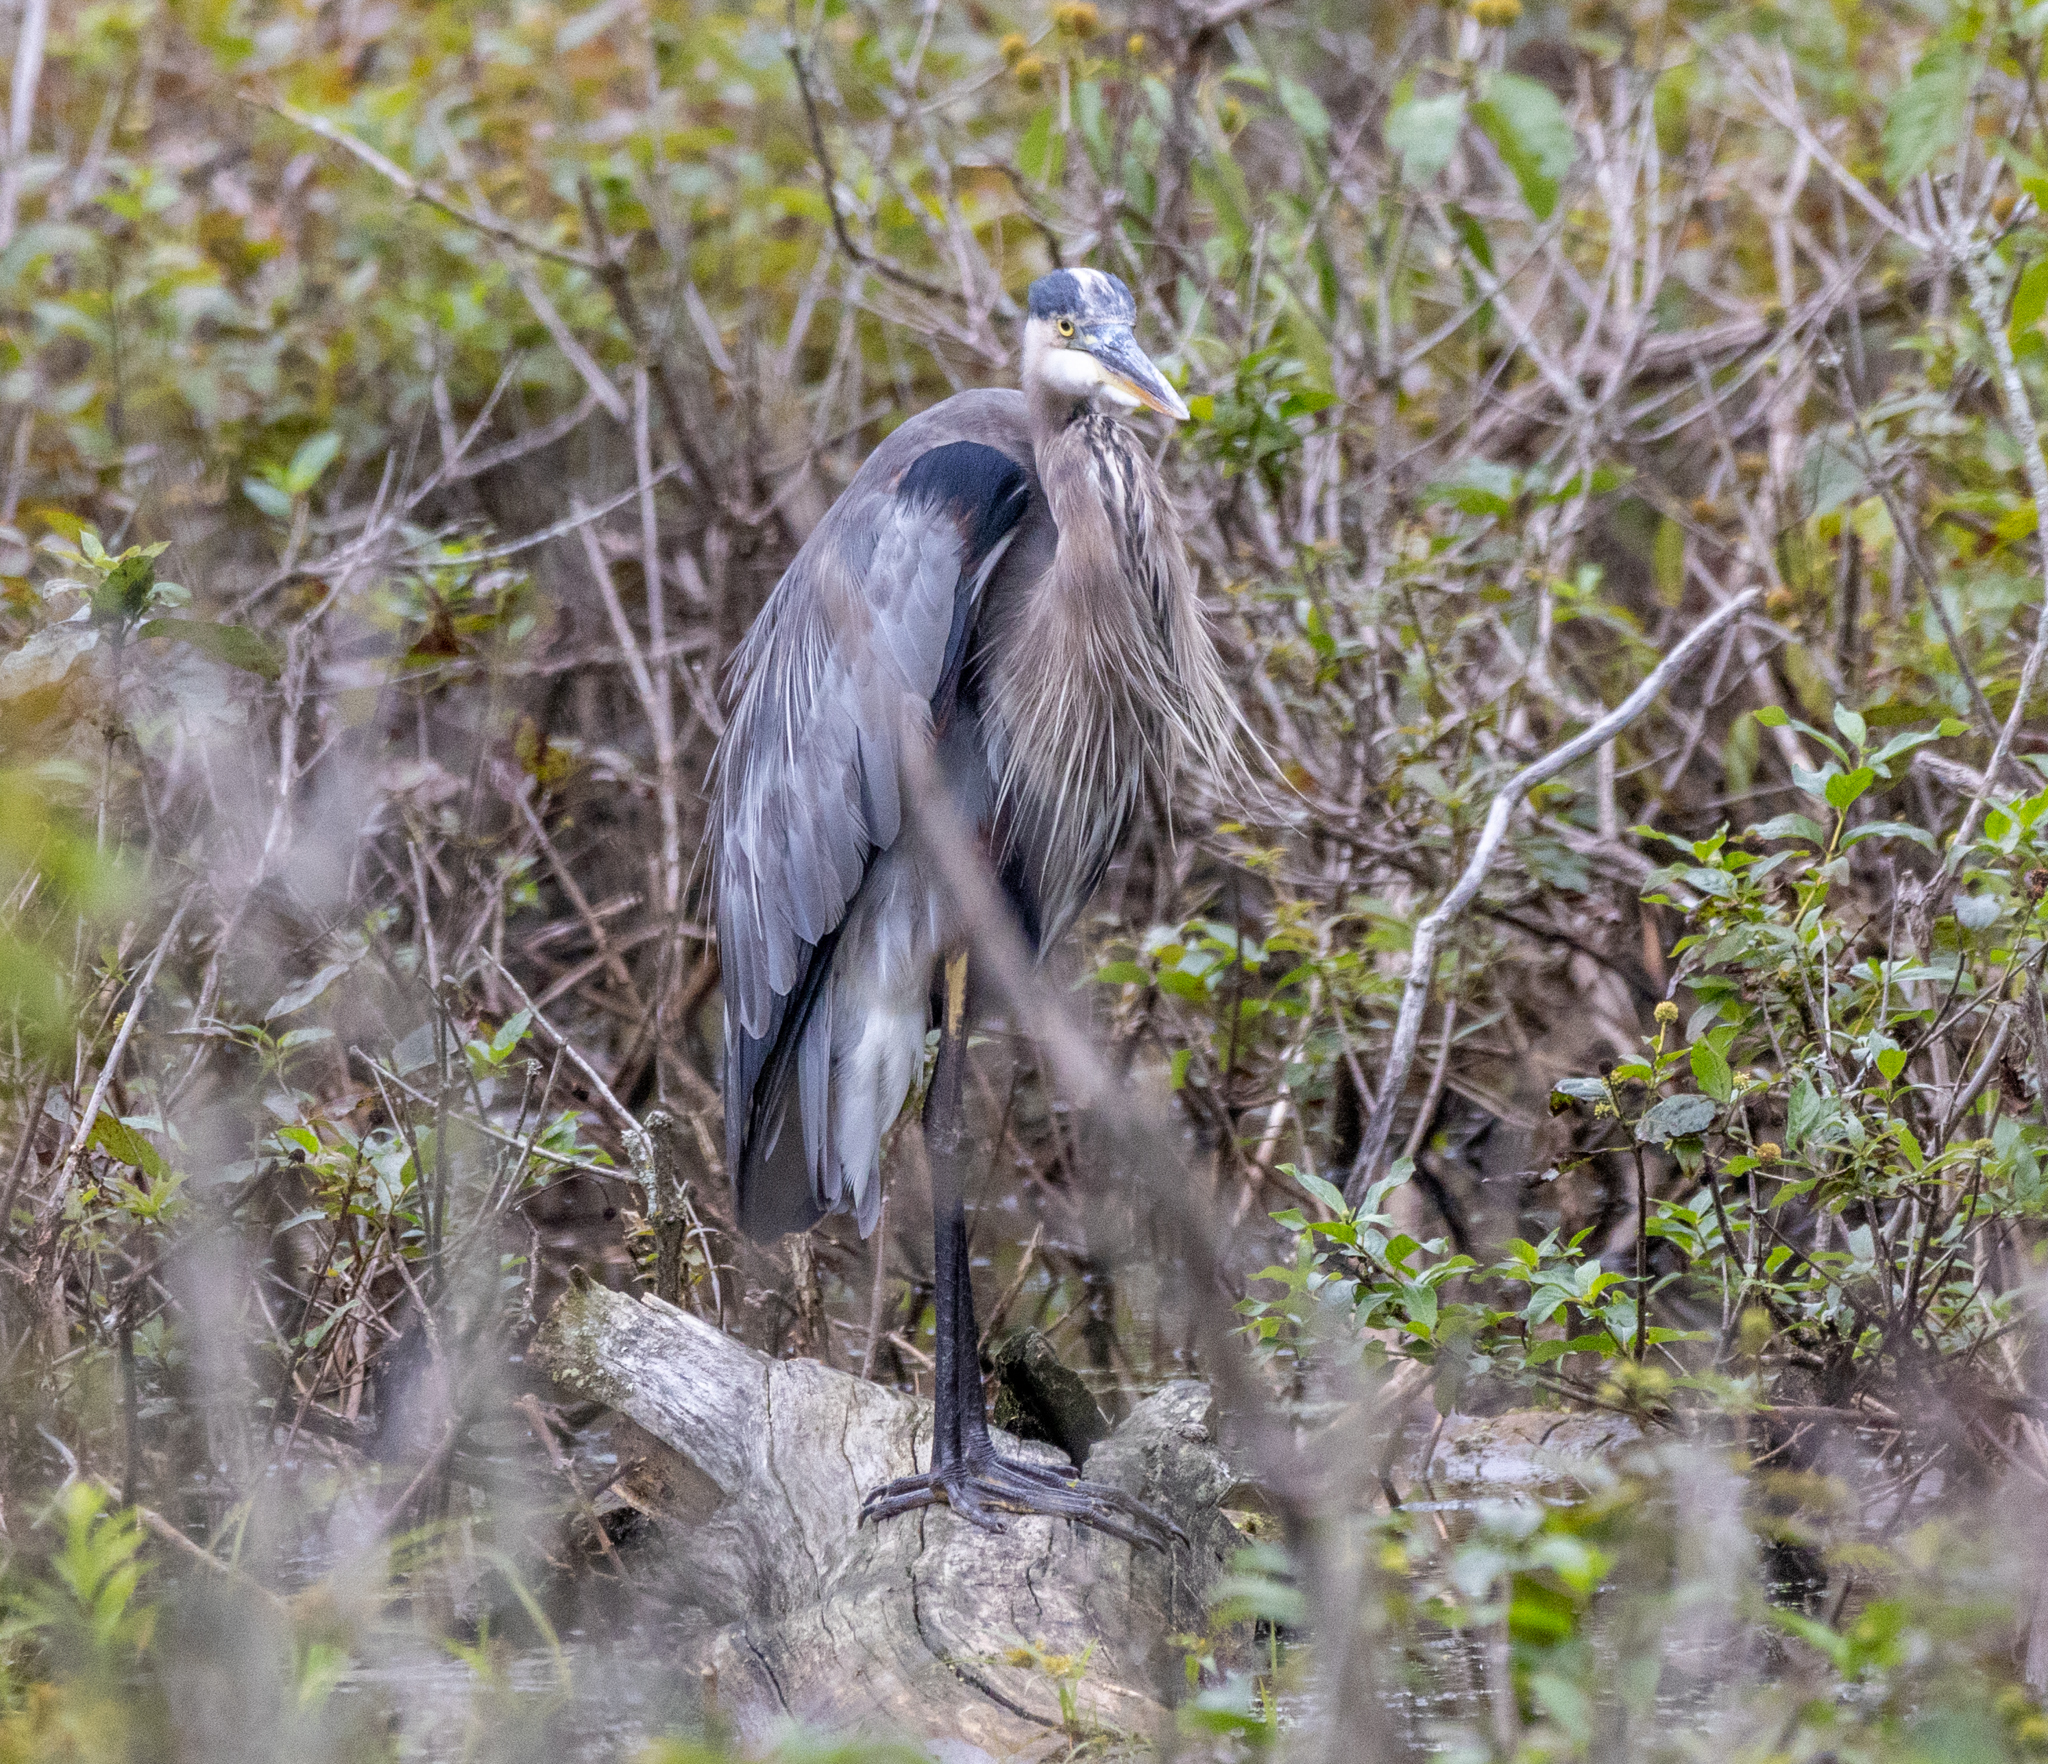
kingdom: Animalia
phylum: Chordata
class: Aves
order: Pelecaniformes
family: Ardeidae
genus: Ardea
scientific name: Ardea herodias
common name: Great blue heron
